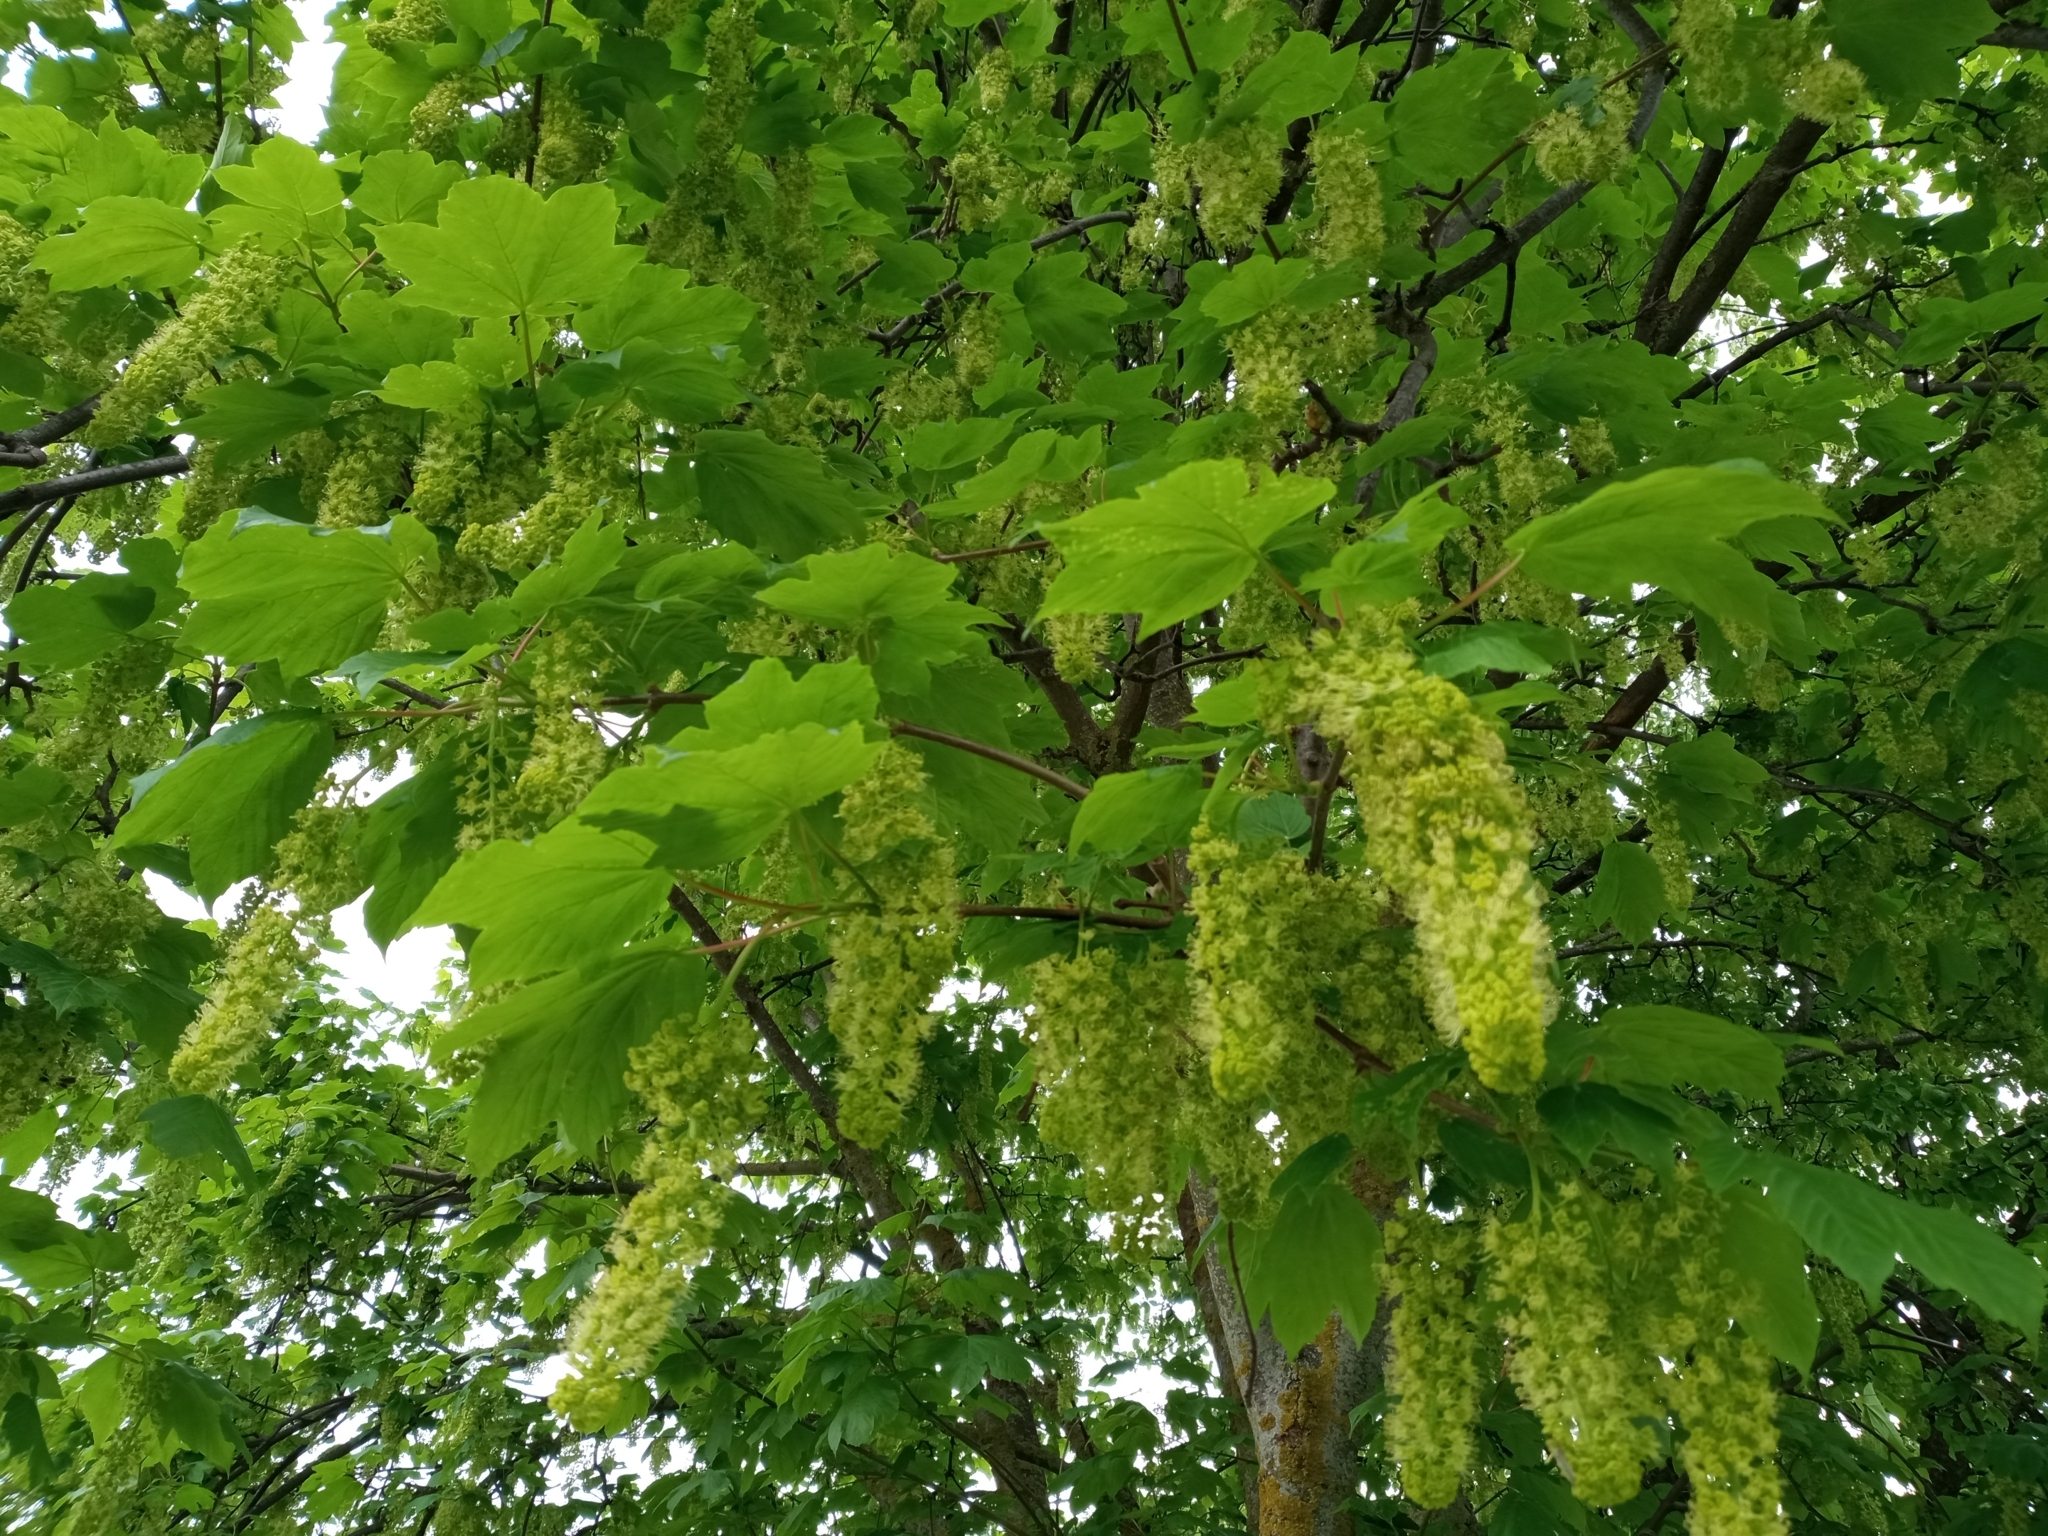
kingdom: Plantae
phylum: Tracheophyta
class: Magnoliopsida
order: Sapindales
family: Sapindaceae
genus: Acer
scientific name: Acer pseudoplatanus
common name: Sycamore
